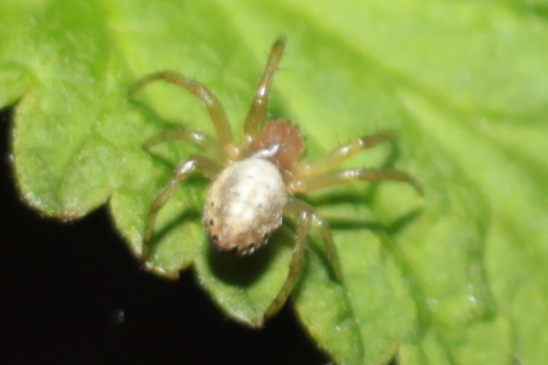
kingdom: Animalia
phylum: Arthropoda
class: Arachnida
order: Araneae
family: Araneidae
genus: Araniella
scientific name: Araniella displicata
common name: Sixspotted orb weaver
